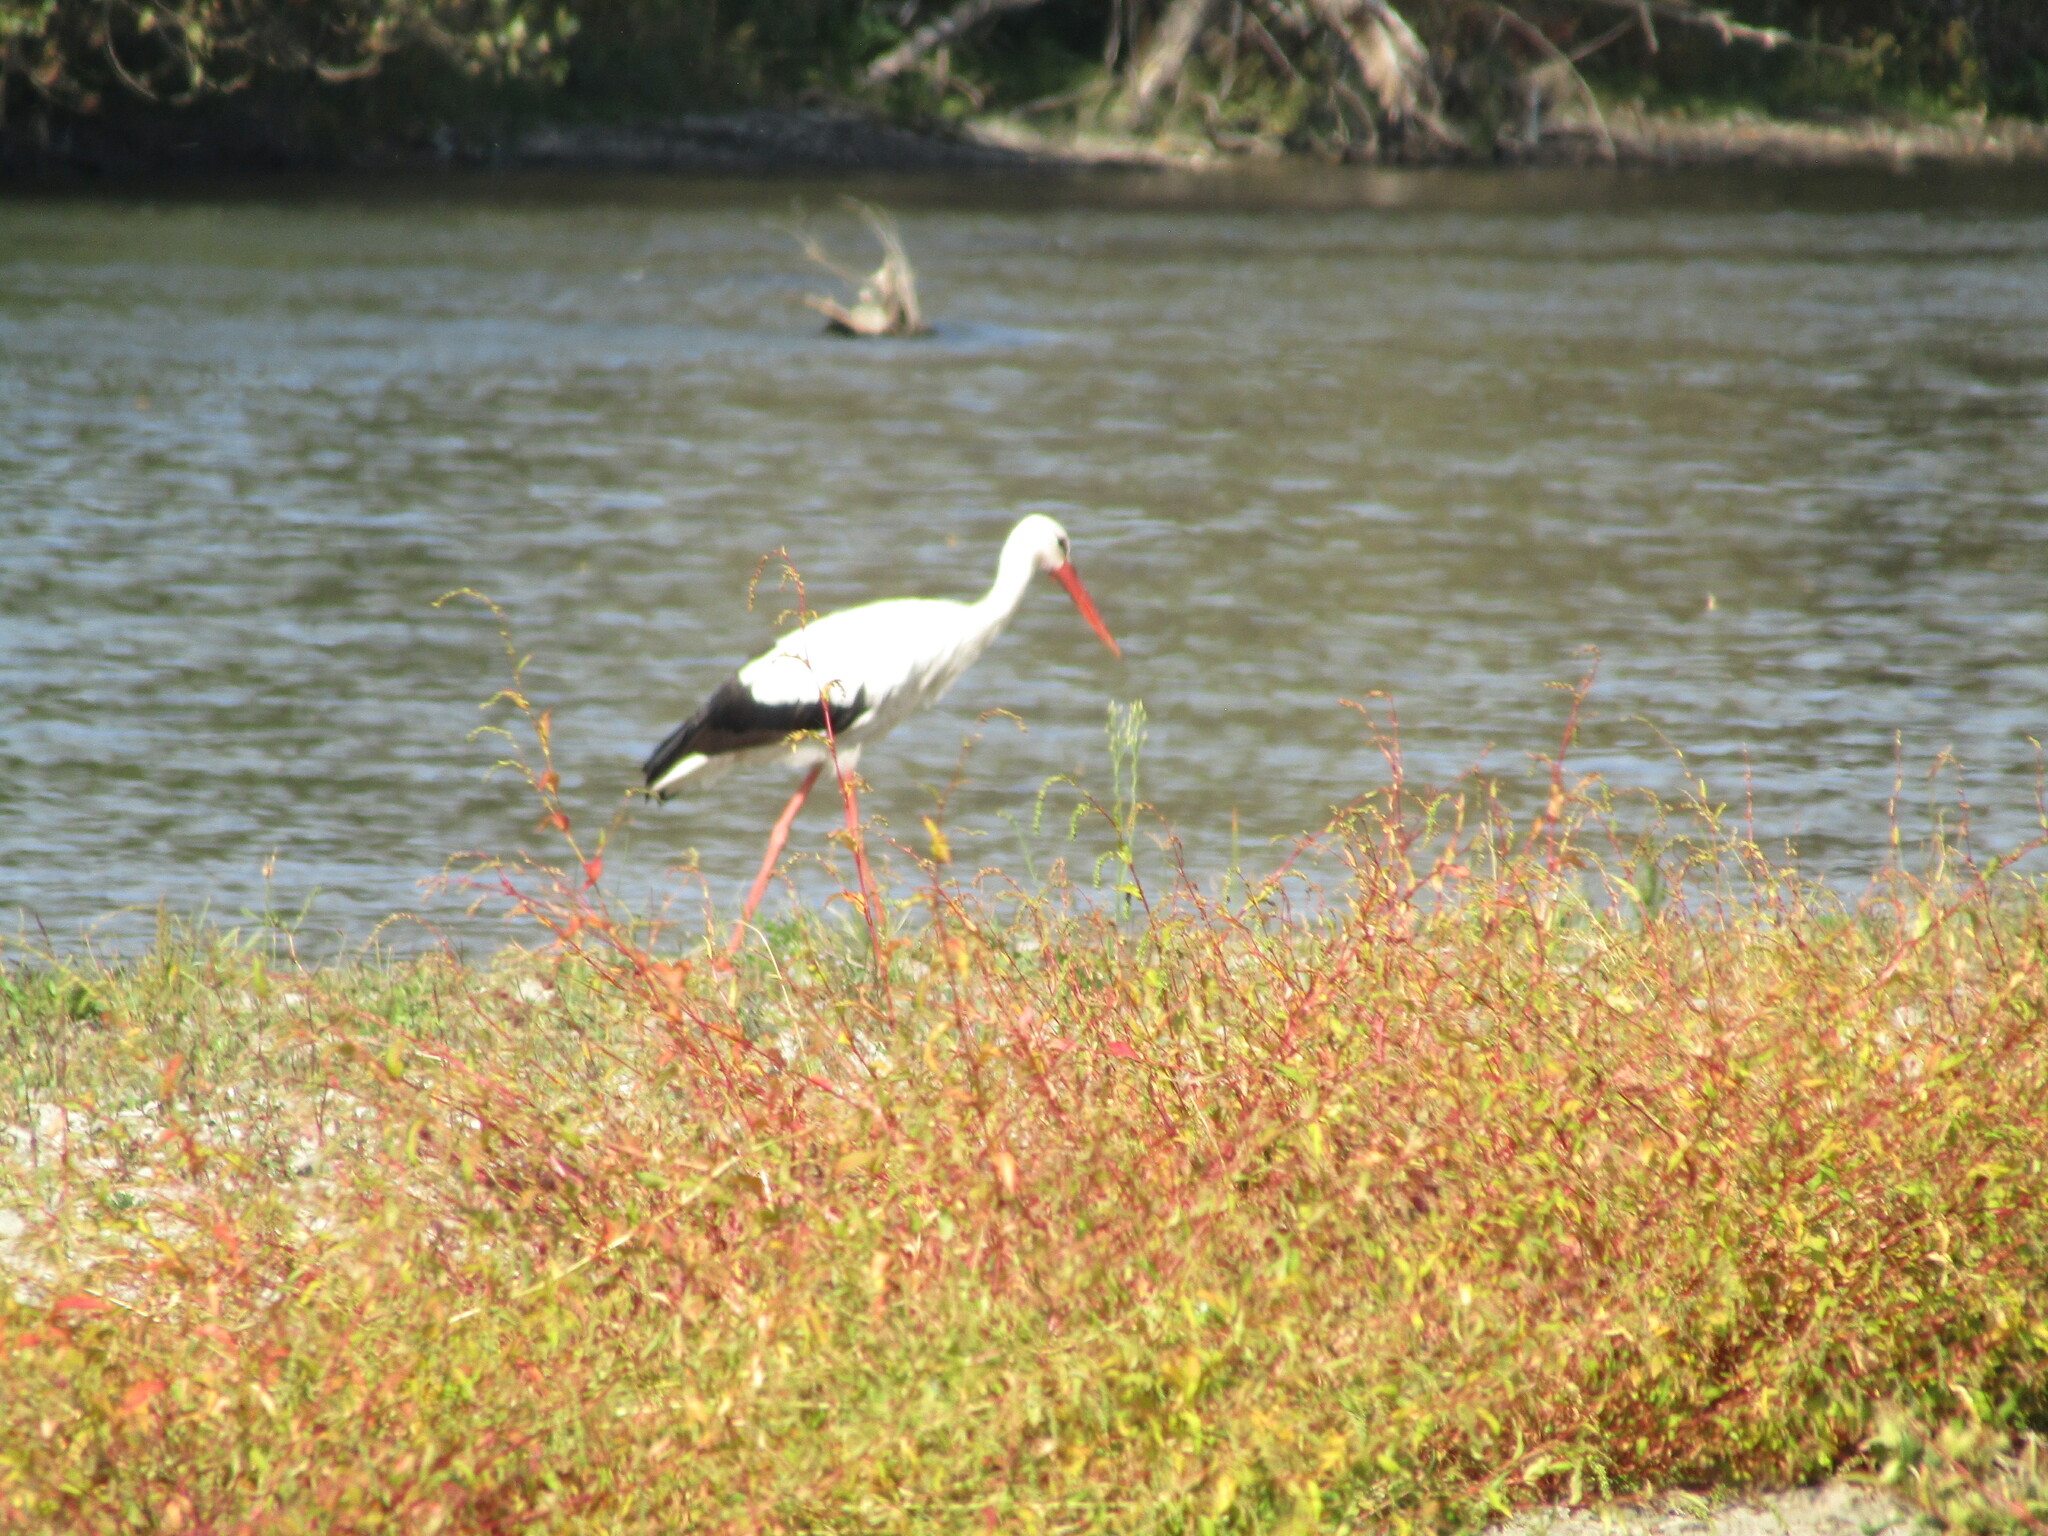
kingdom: Animalia
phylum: Chordata
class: Aves
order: Ciconiiformes
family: Ciconiidae
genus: Ciconia
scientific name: Ciconia ciconia
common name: White stork
